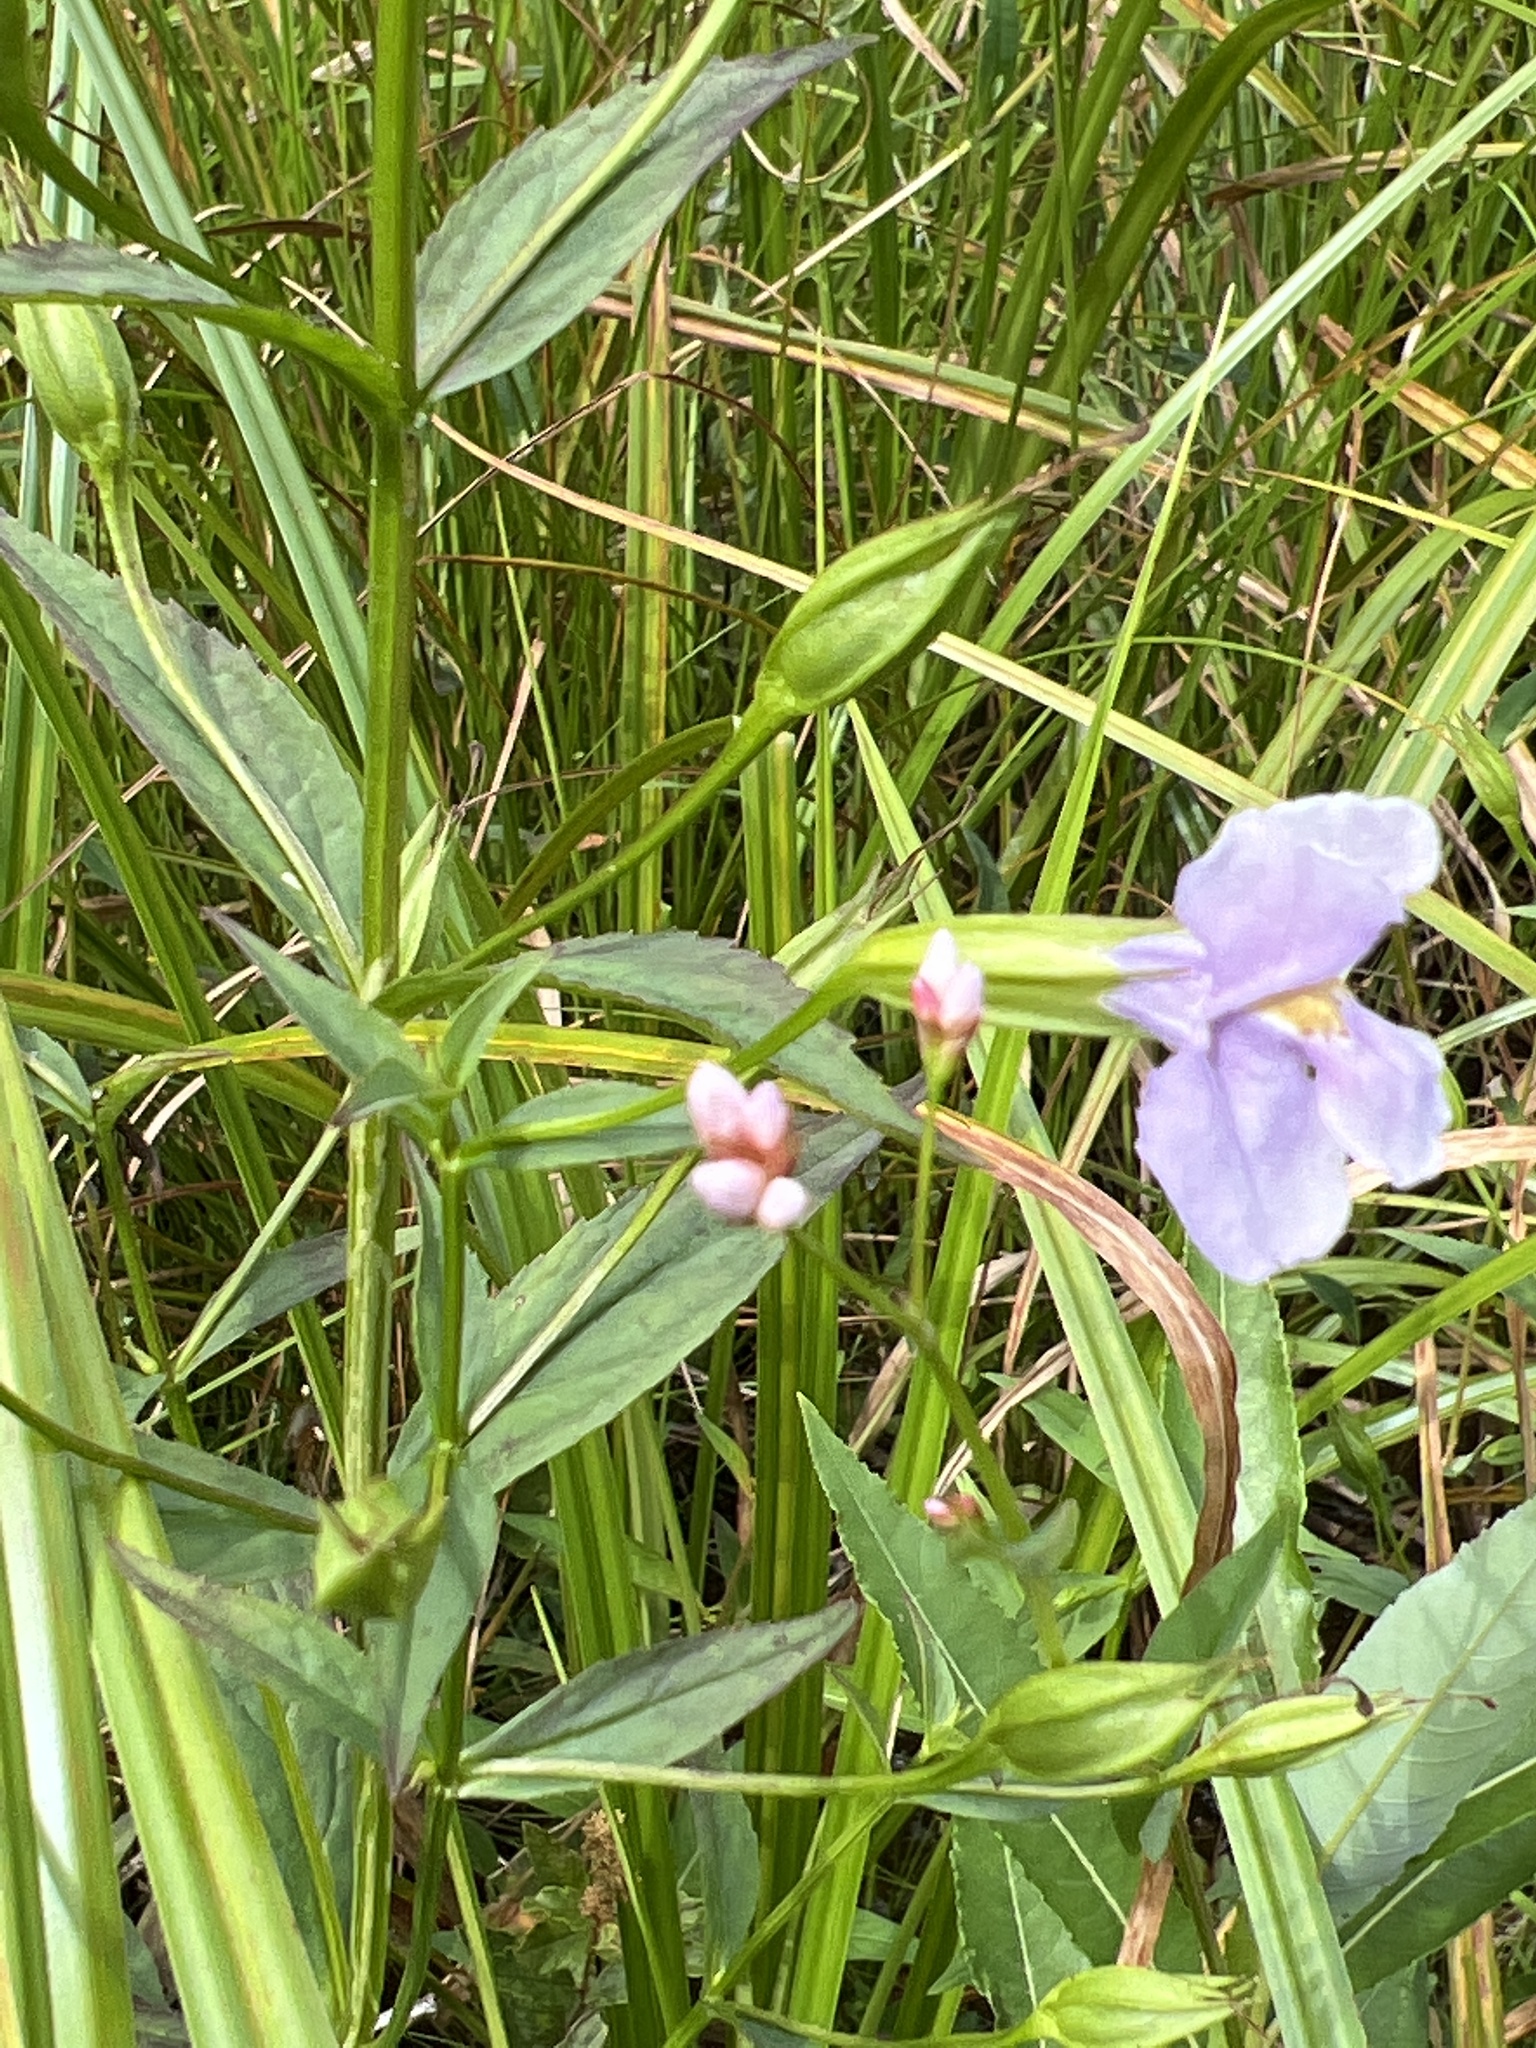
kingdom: Plantae
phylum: Tracheophyta
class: Magnoliopsida
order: Lamiales
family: Phrymaceae
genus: Mimulus
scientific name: Mimulus ringens
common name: Allegheny monkeyflower
